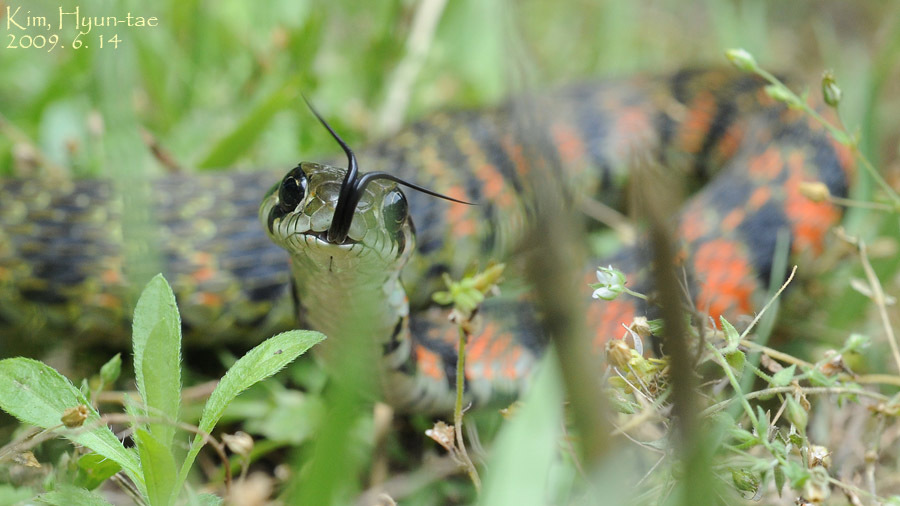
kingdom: Animalia
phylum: Chordata
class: Squamata
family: Colubridae
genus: Rhabdophis
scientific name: Rhabdophis tigrinus
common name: Tiger keelback
